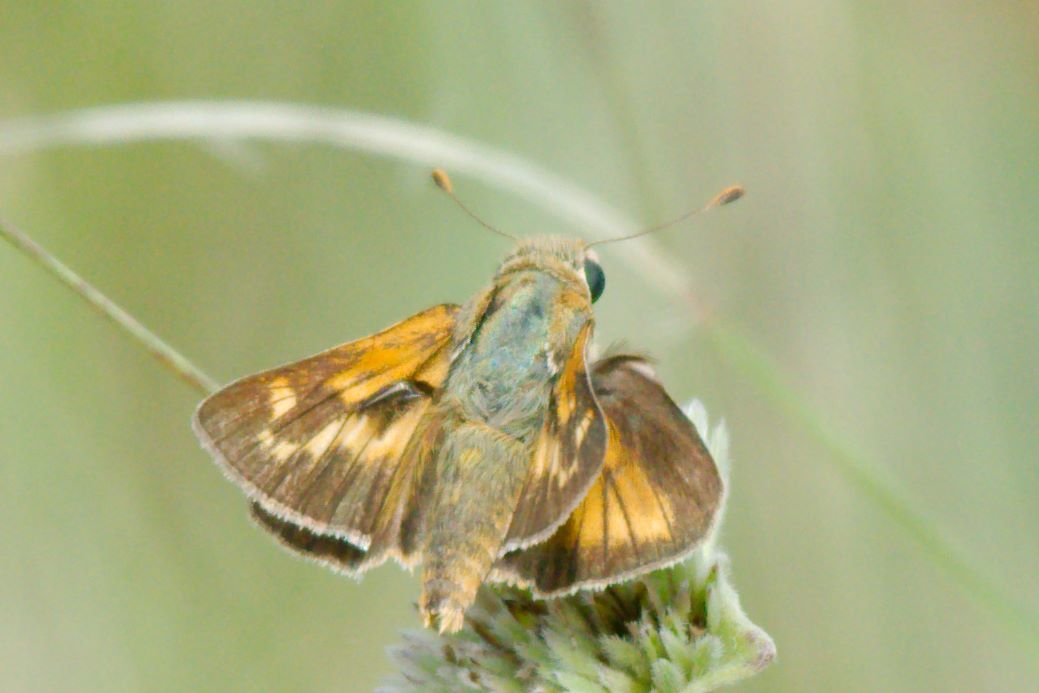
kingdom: Animalia
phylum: Arthropoda
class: Insecta
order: Lepidoptera
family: Hesperiidae
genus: Hesperia
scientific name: Hesperia meskei
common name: Meske's skipper
